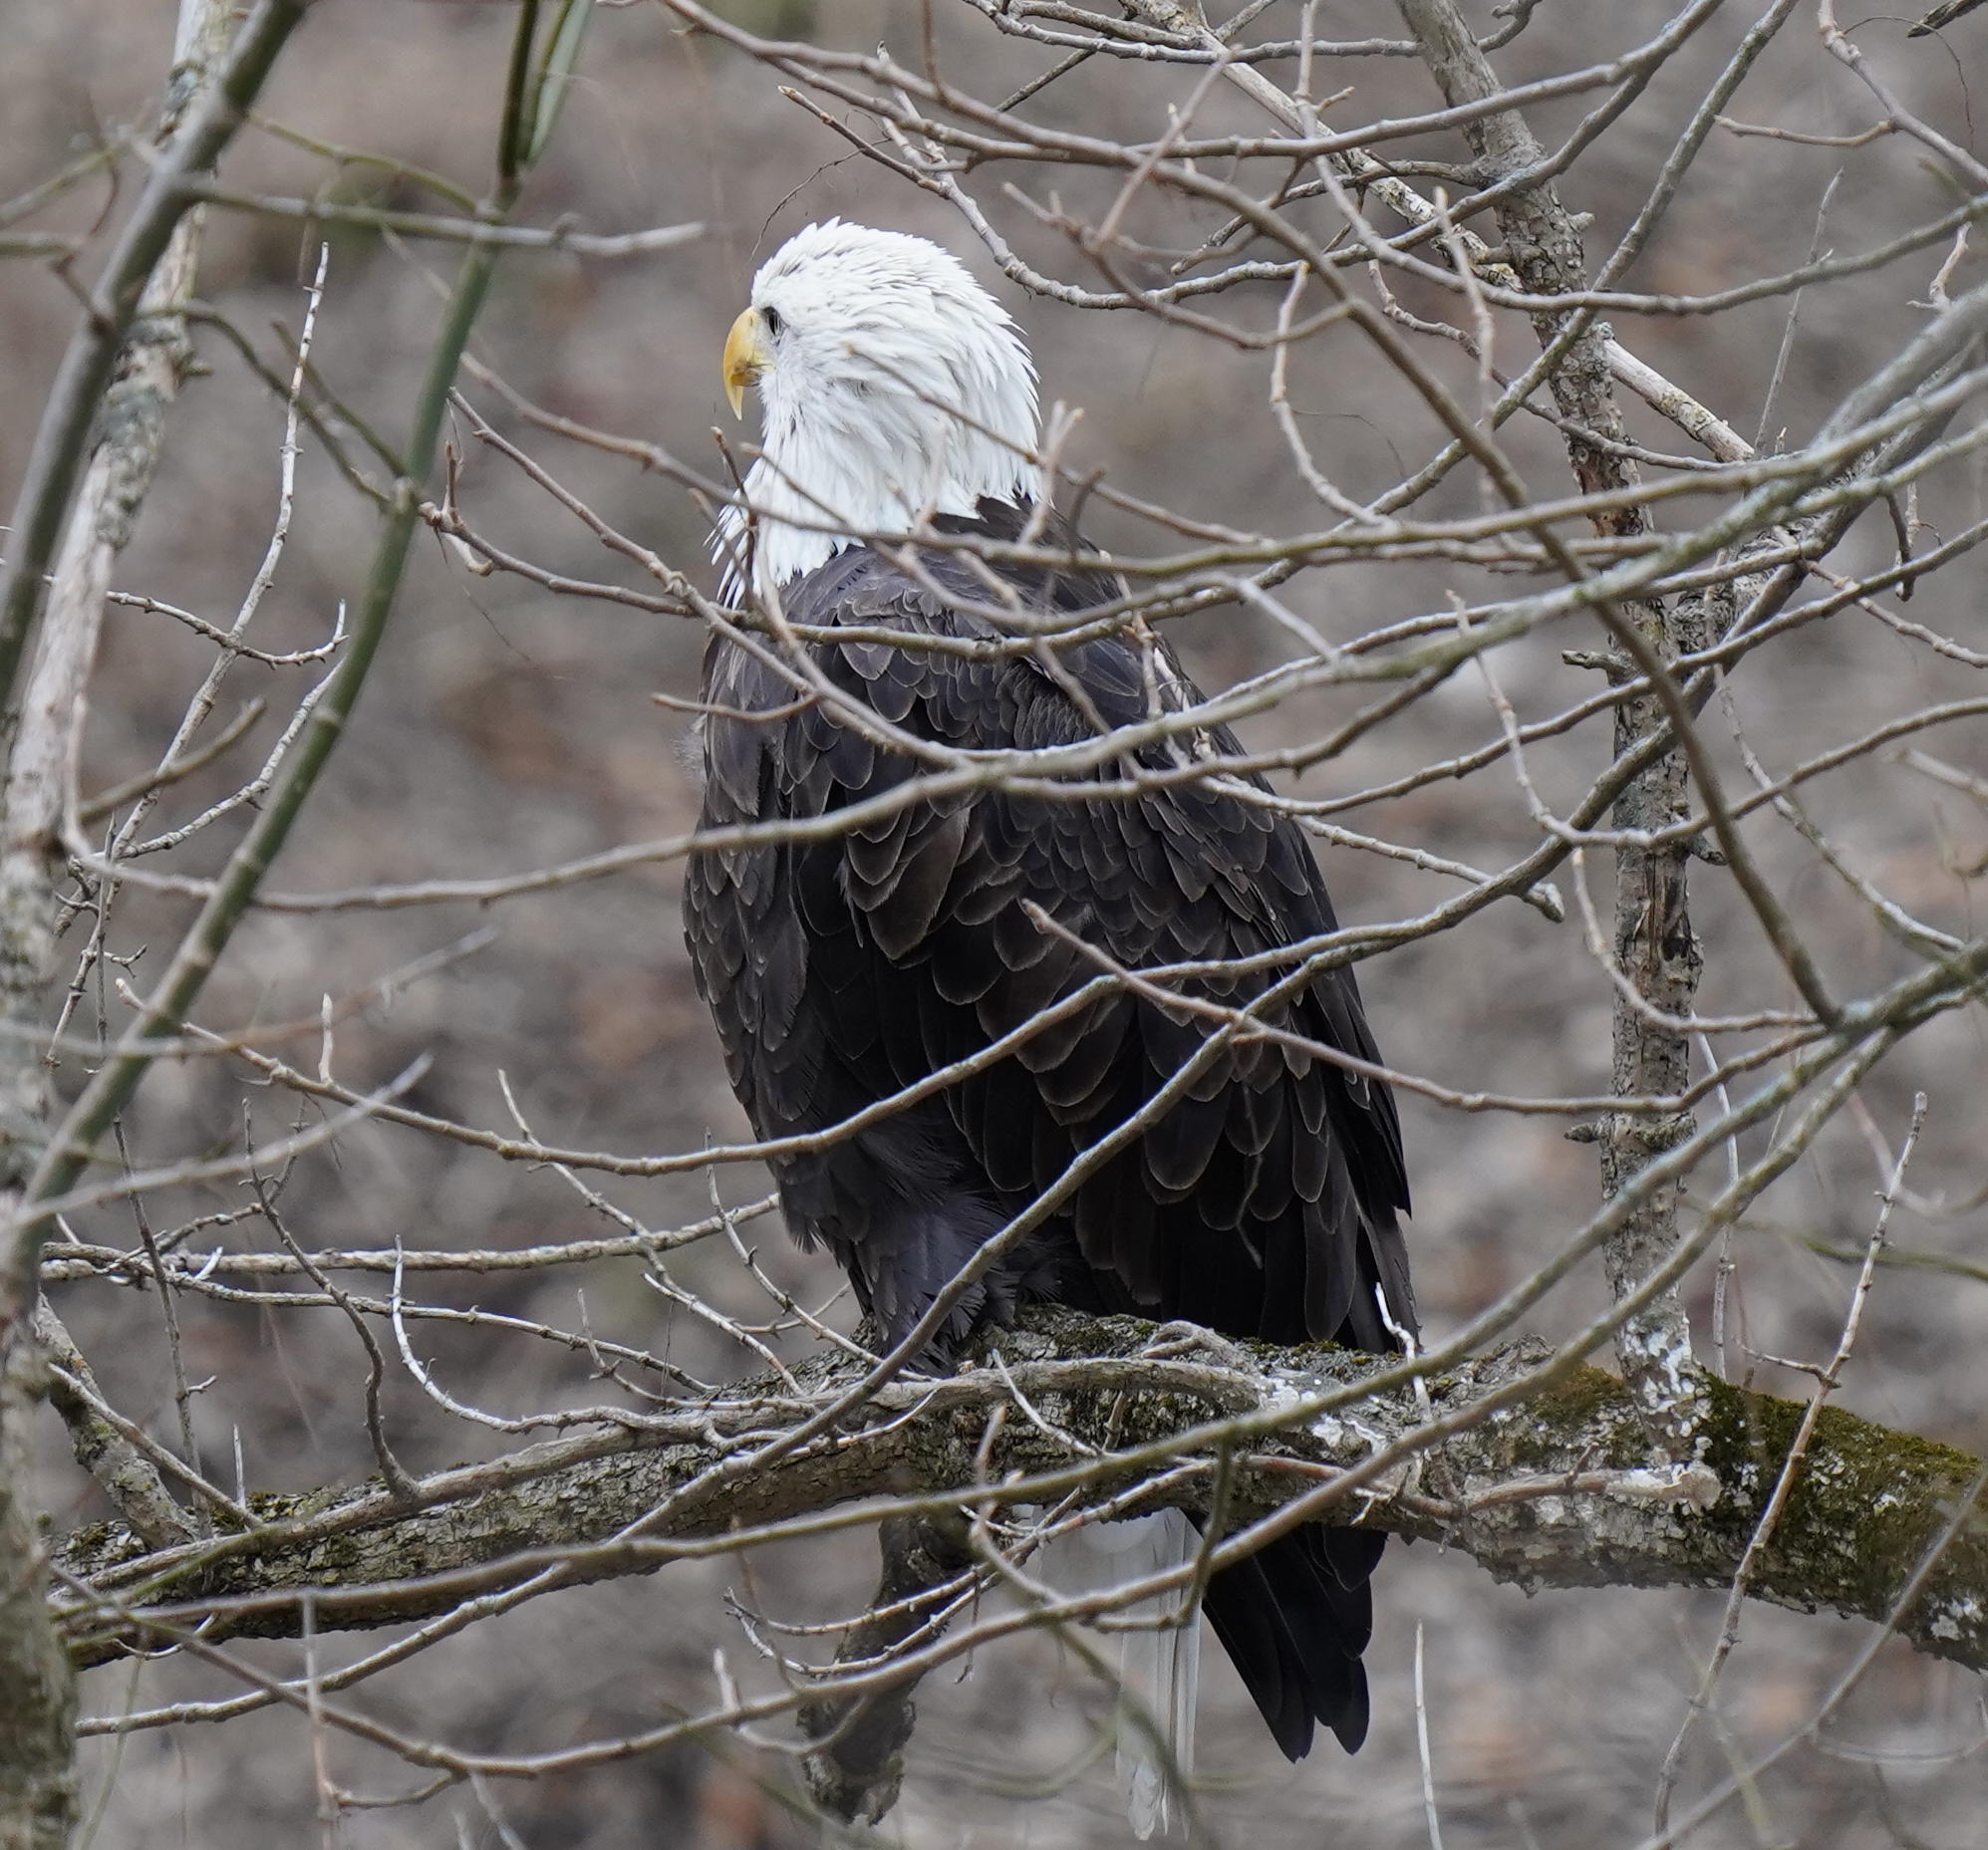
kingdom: Animalia
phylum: Chordata
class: Aves
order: Accipitriformes
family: Accipitridae
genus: Haliaeetus
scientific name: Haliaeetus leucocephalus
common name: Bald eagle
